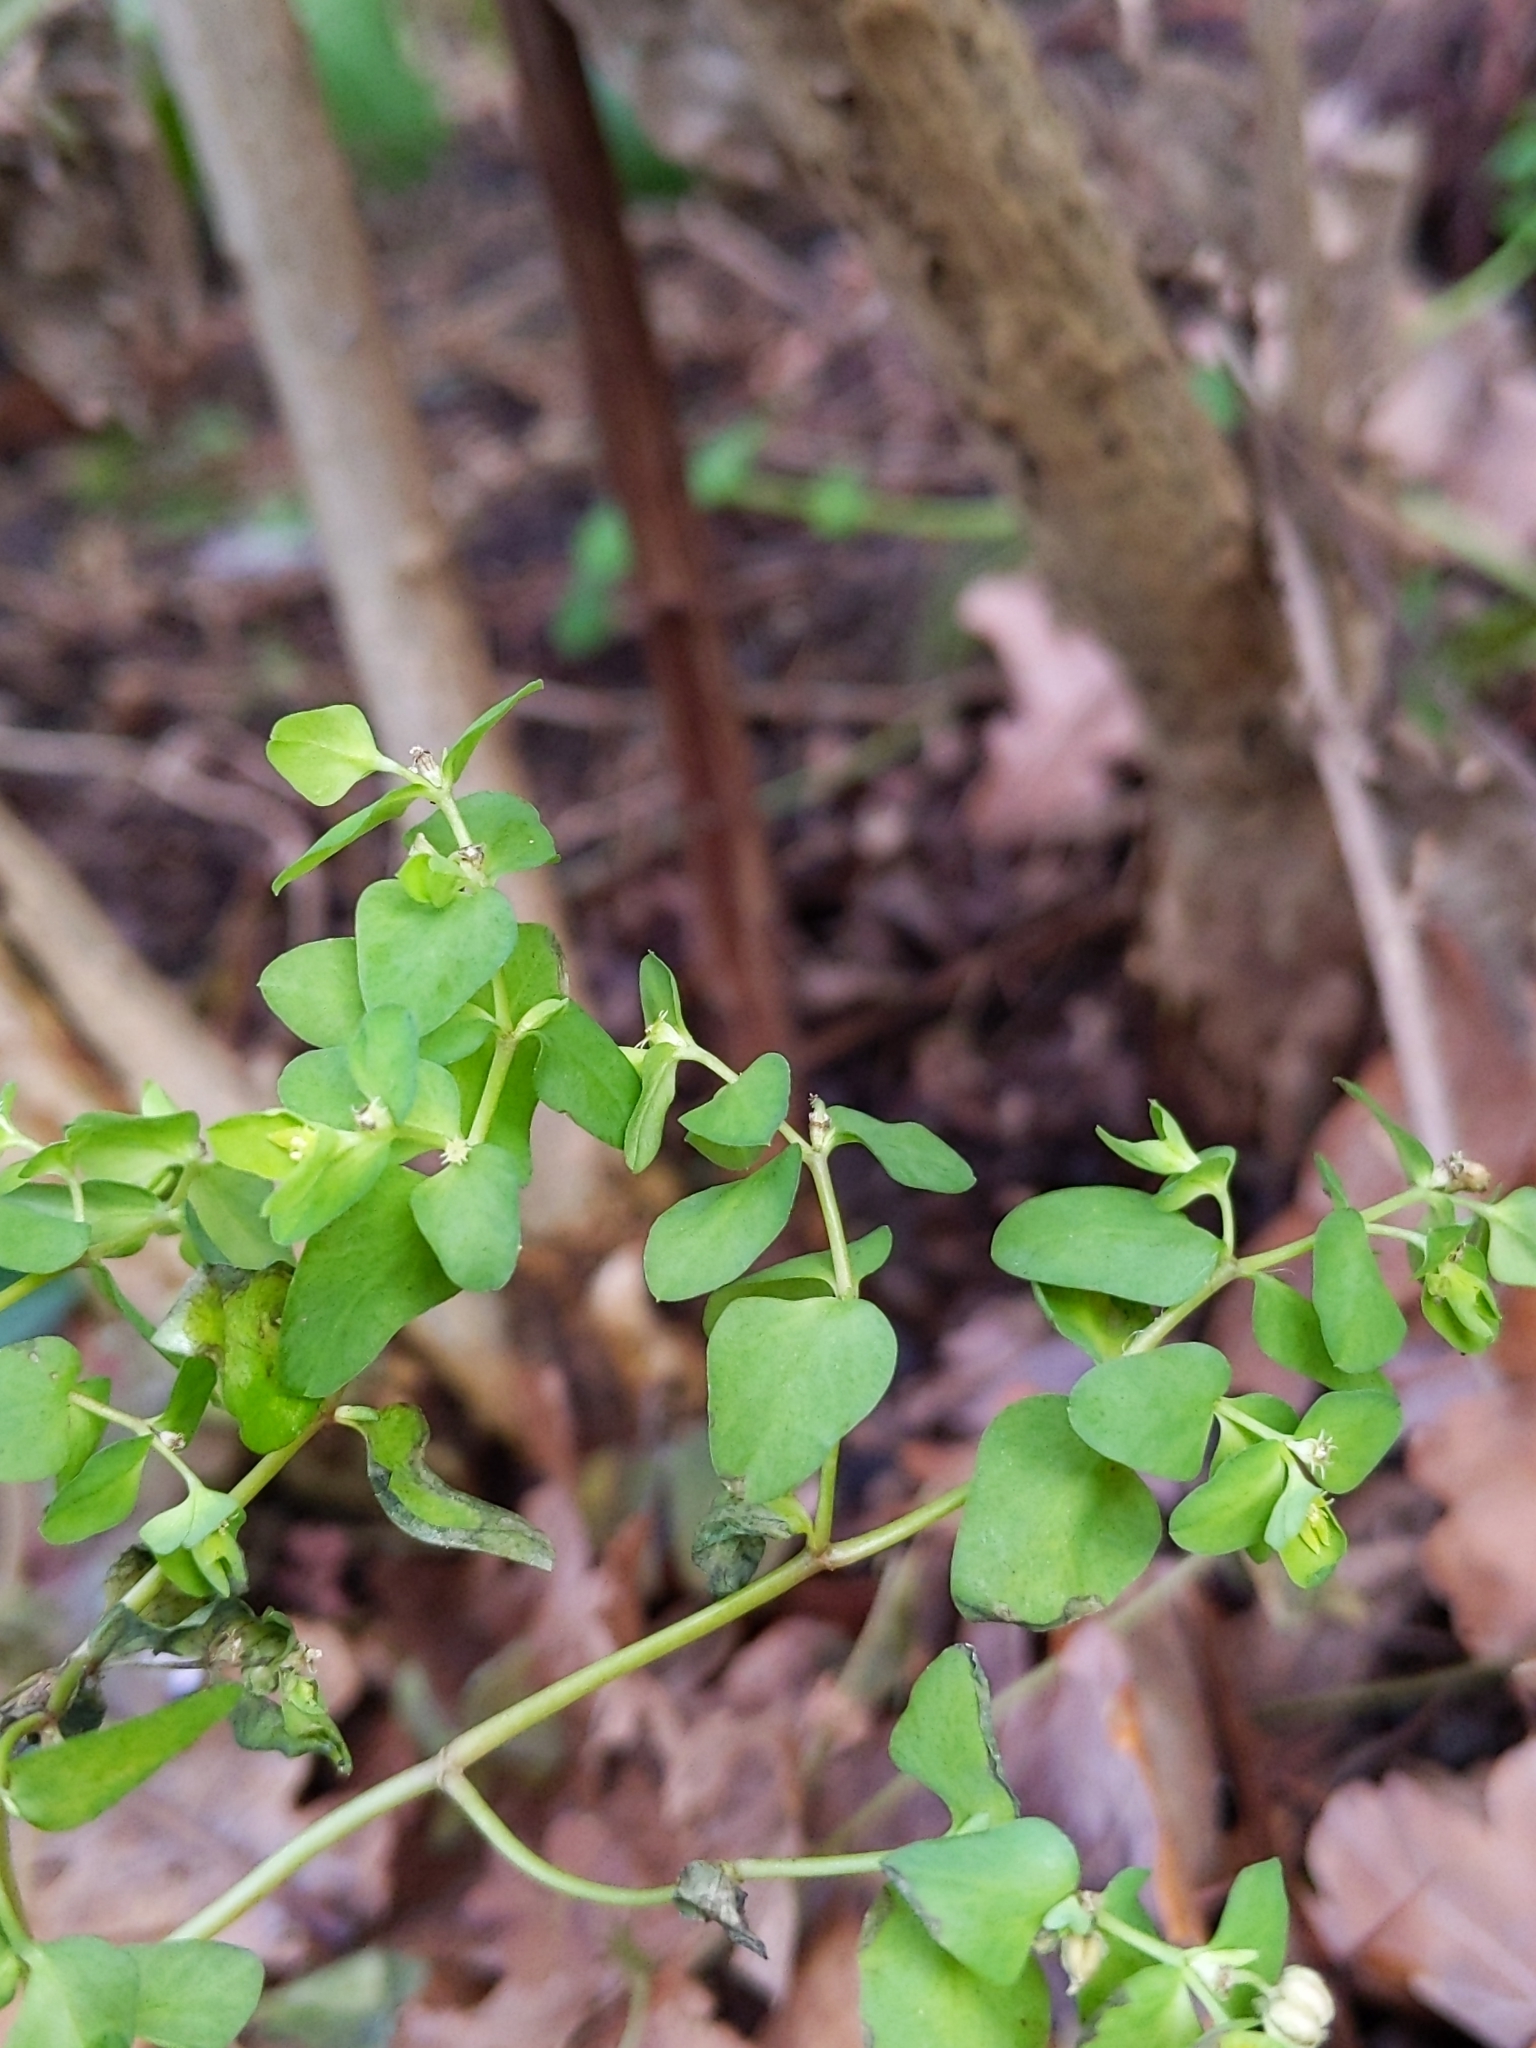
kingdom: Plantae
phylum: Tracheophyta
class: Magnoliopsida
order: Malpighiales
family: Euphorbiaceae
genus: Euphorbia
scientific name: Euphorbia peplus
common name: Petty spurge
